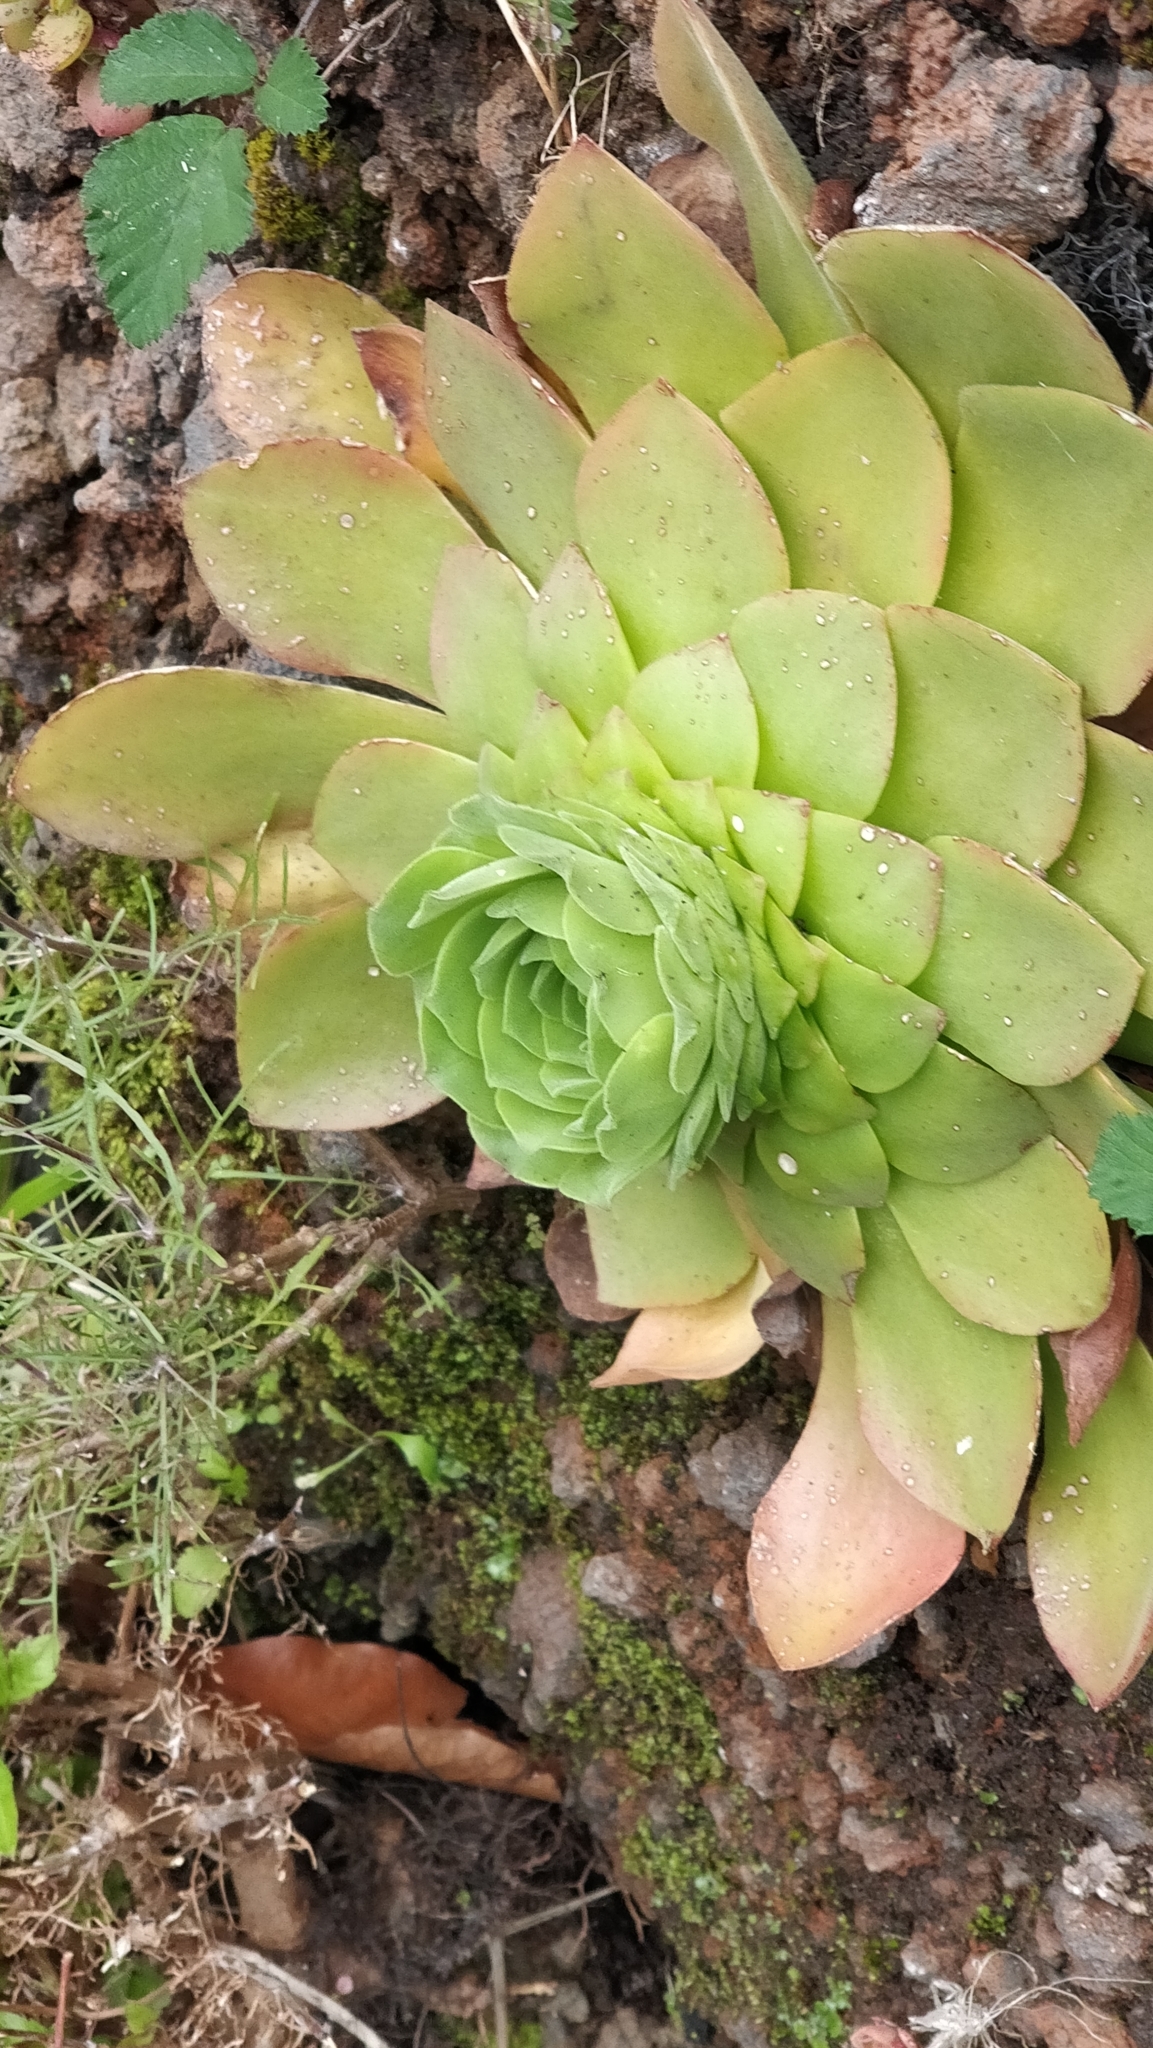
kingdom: Plantae
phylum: Tracheophyta
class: Magnoliopsida
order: Saxifragales
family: Crassulaceae
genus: Aeonium
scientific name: Aeonium glandulosum
